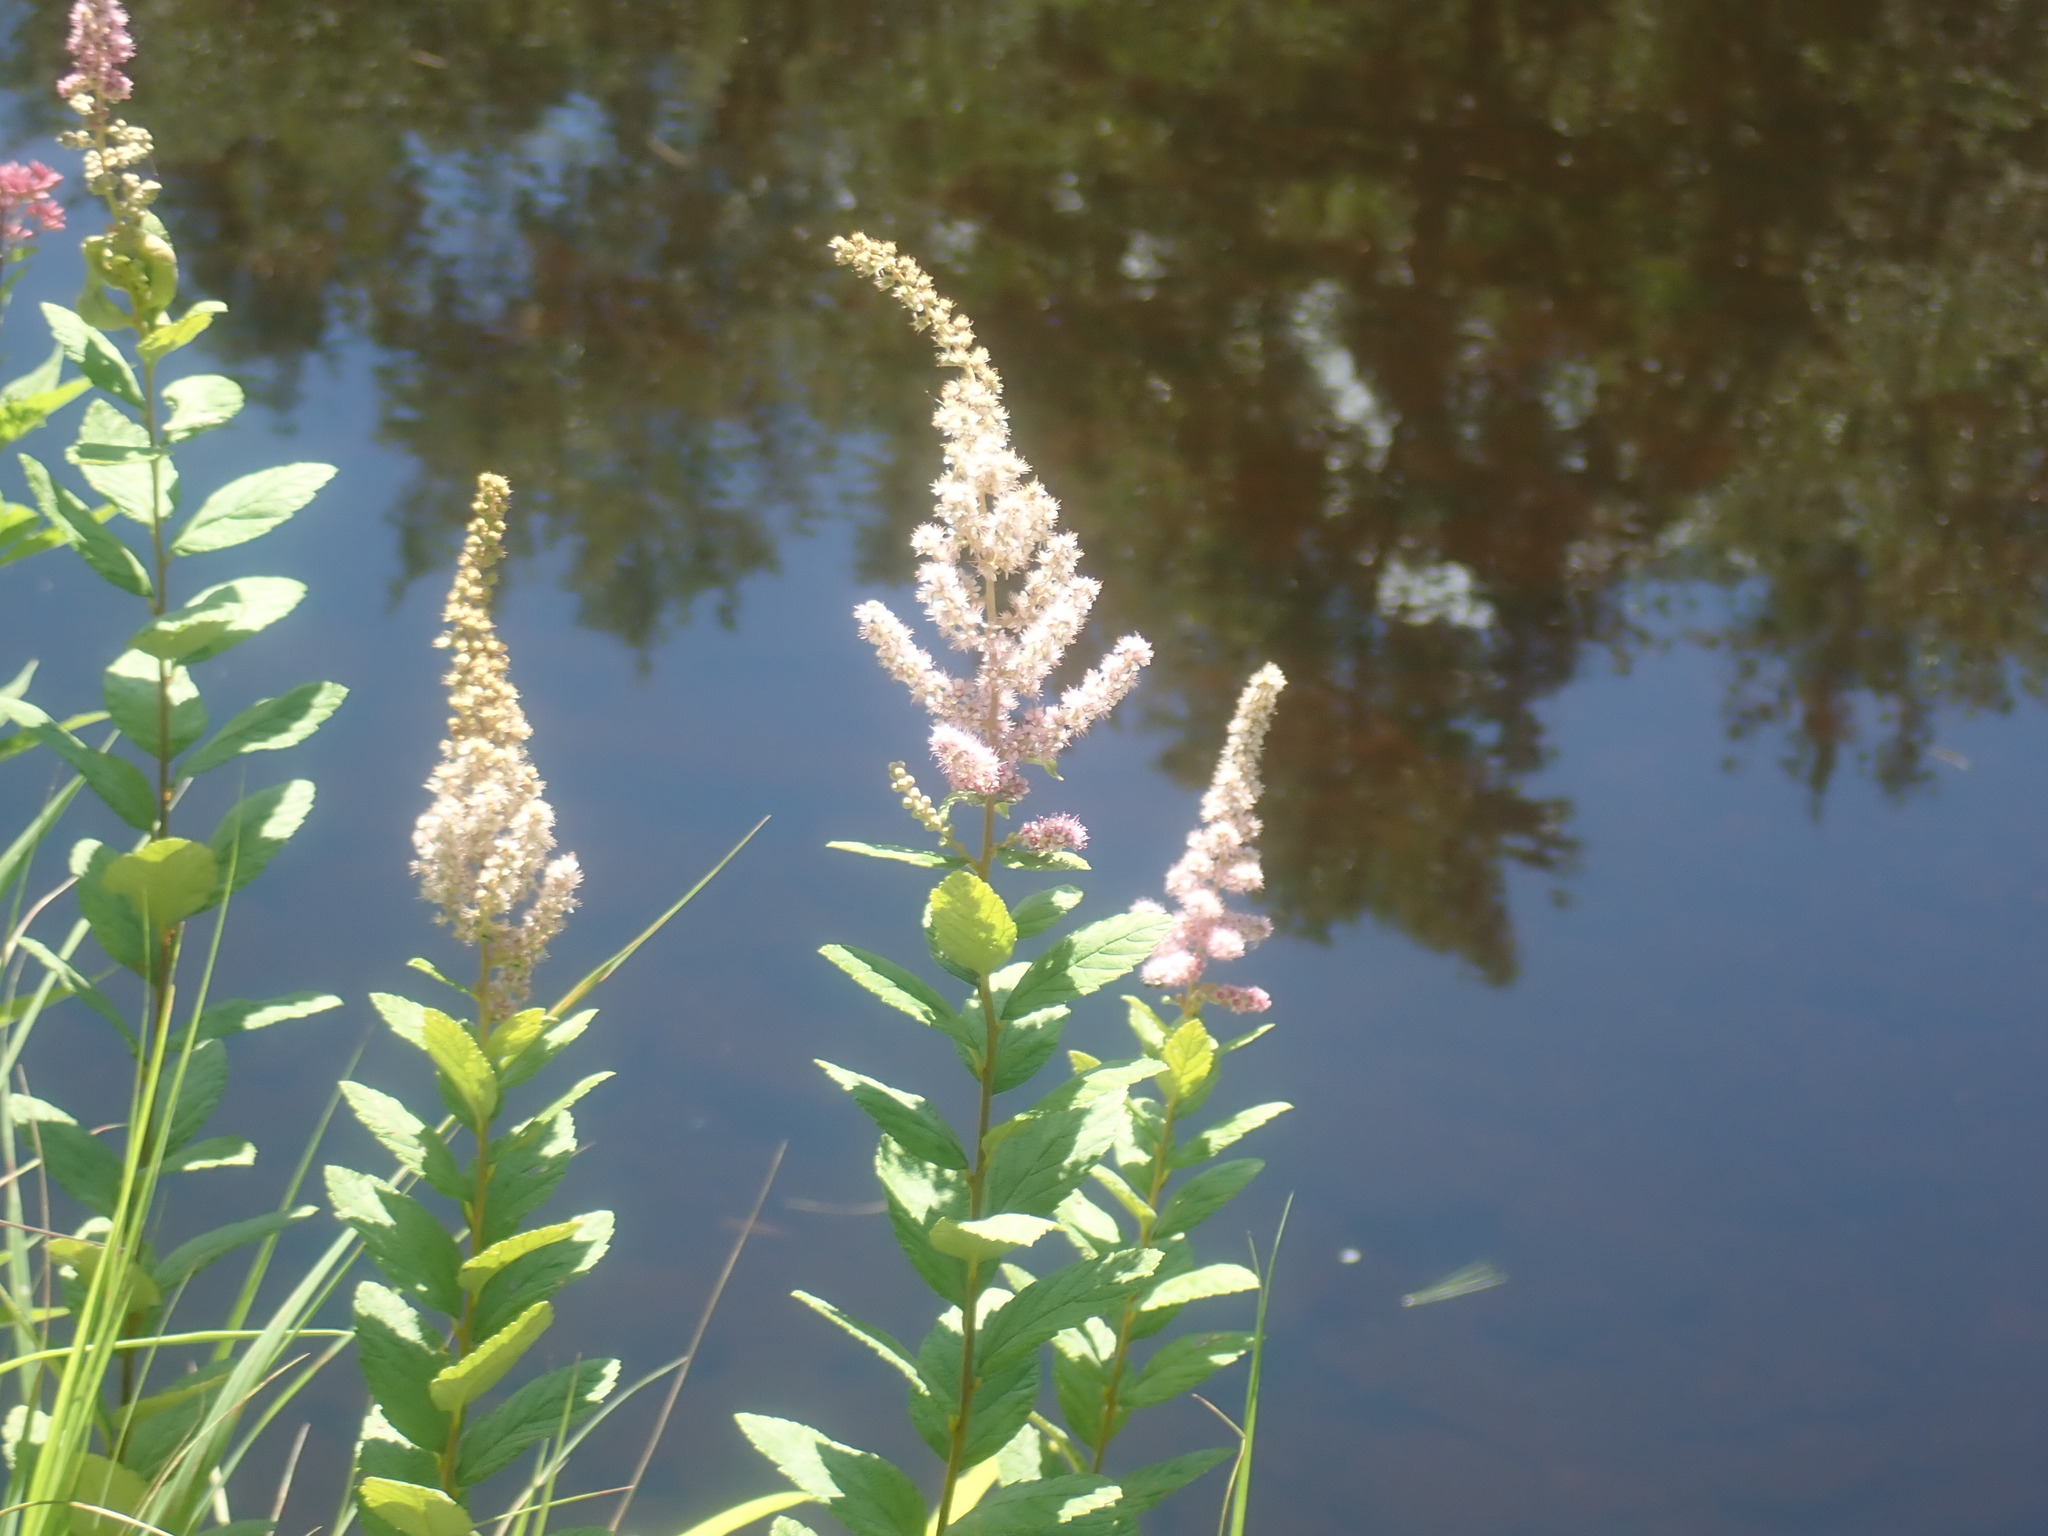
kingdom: Plantae
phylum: Tracheophyta
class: Magnoliopsida
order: Rosales
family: Rosaceae
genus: Spiraea
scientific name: Spiraea tomentosa
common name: Hardhack
